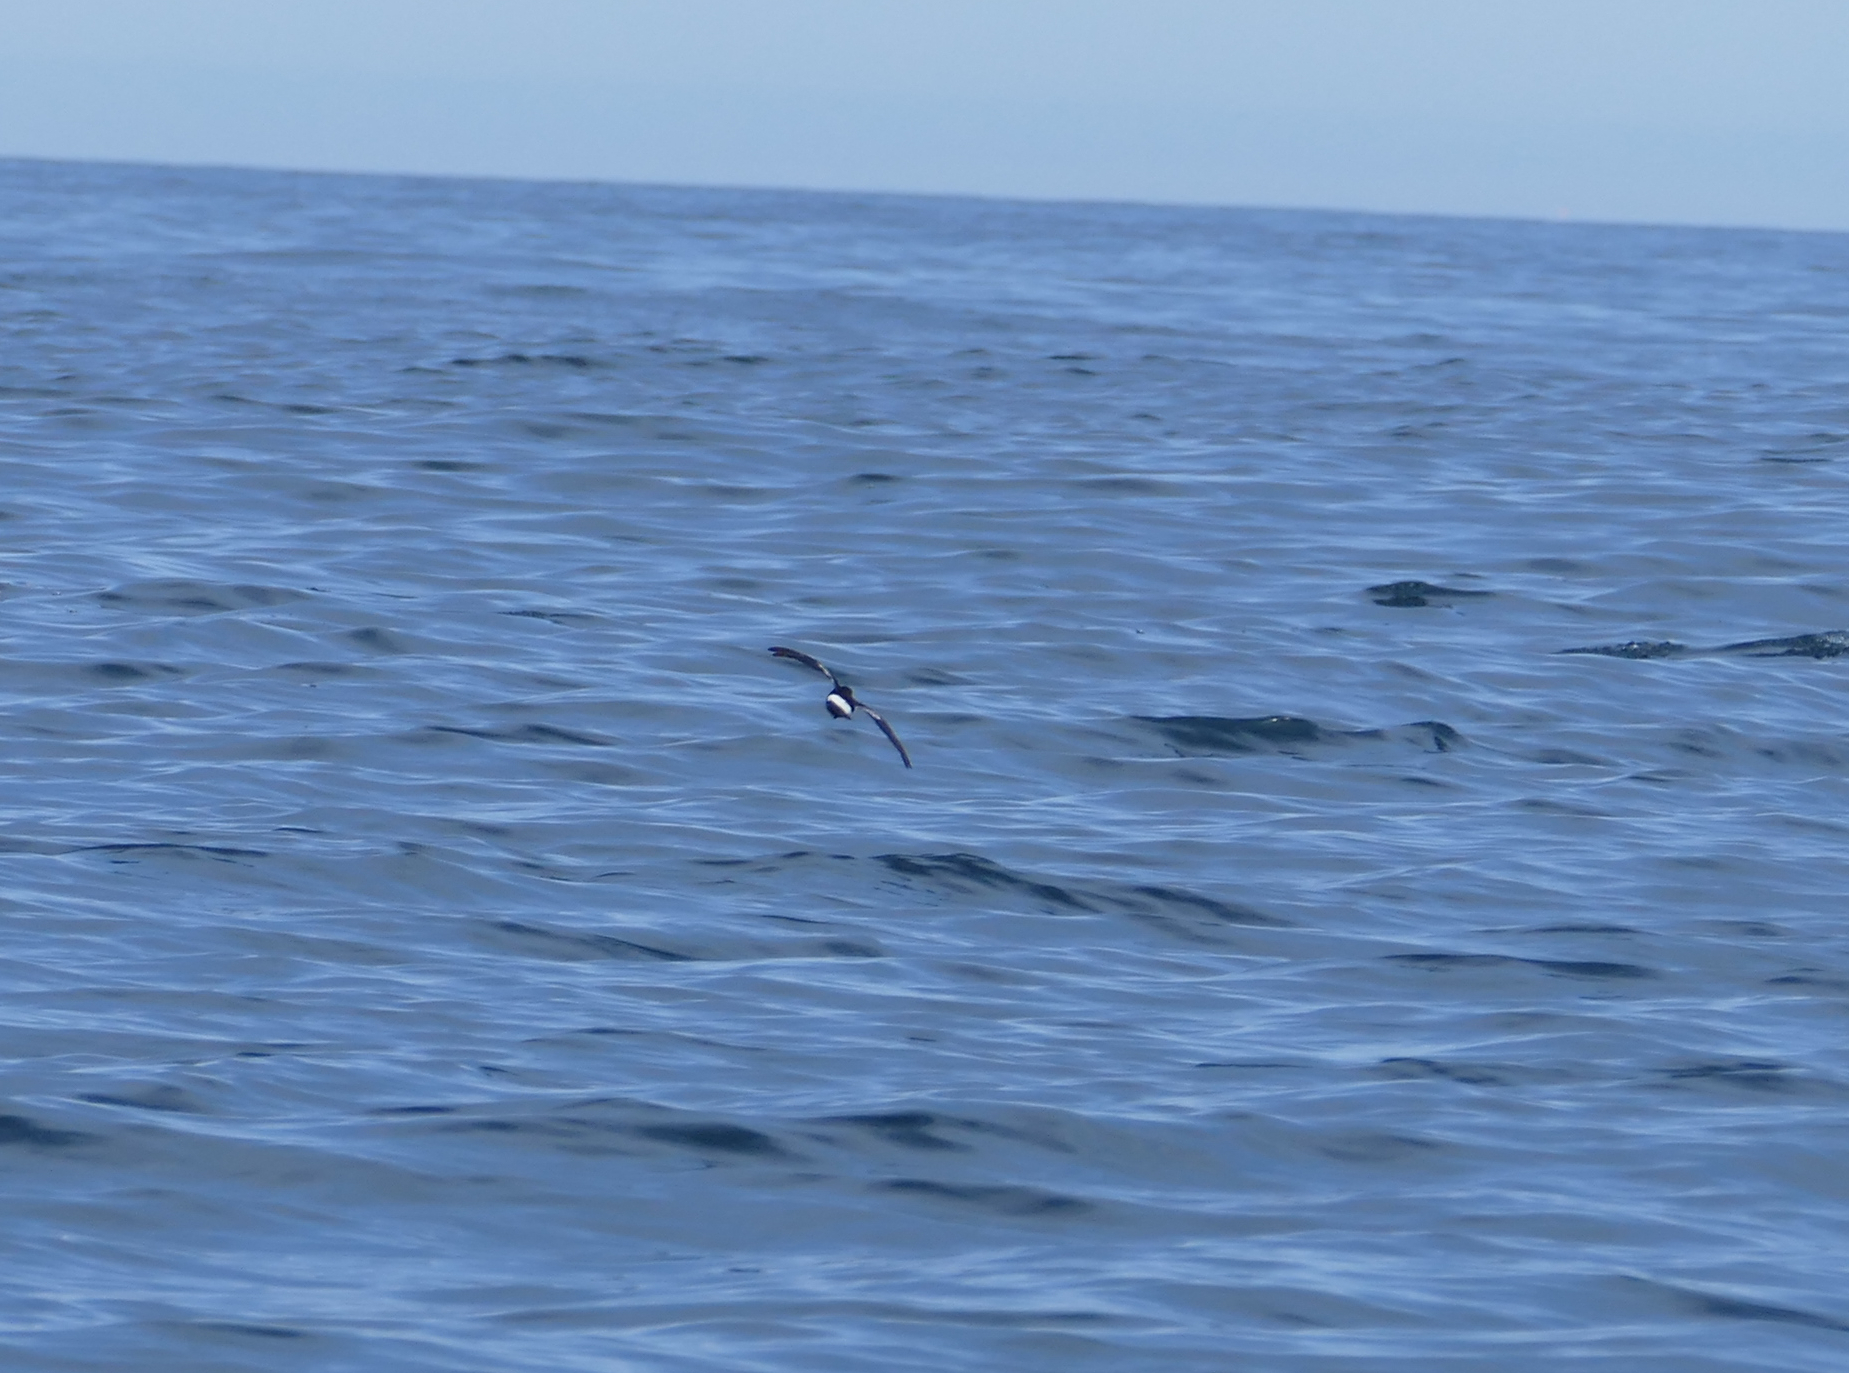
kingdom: Animalia
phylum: Chordata
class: Aves
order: Procellariiformes
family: Hydrobatidae
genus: Oceanites
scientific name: Oceanites oceanicus
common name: Wilson's storm petrel
